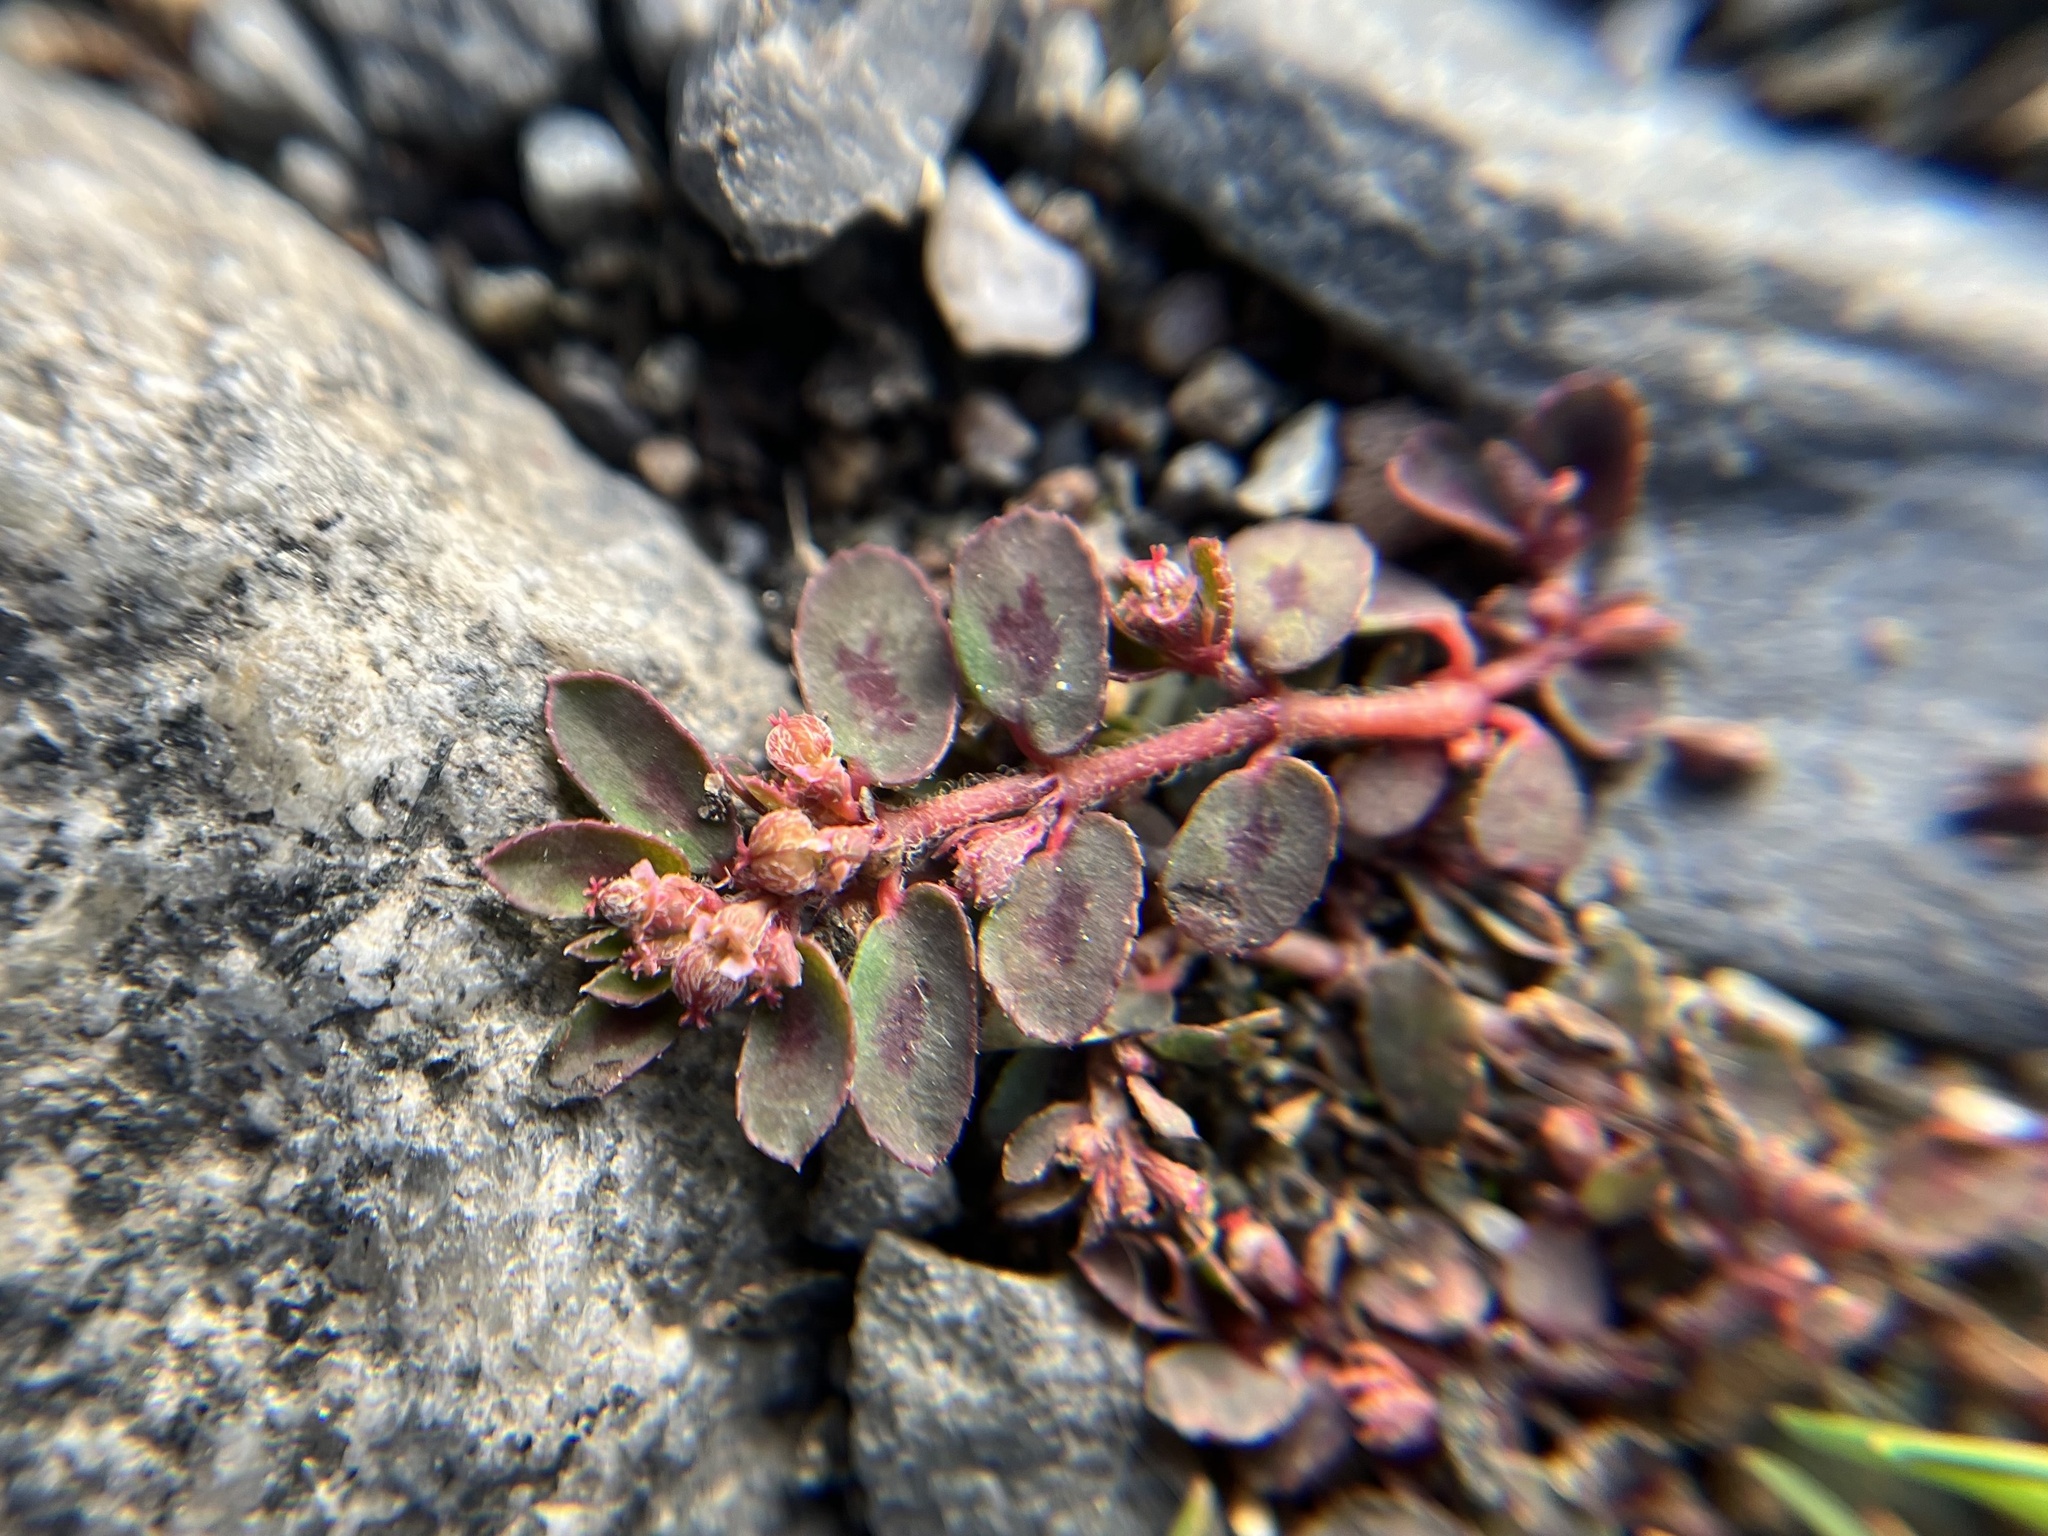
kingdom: Plantae
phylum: Tracheophyta
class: Magnoliopsida
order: Malpighiales
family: Euphorbiaceae
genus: Euphorbia
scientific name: Euphorbia maculata
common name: Spotted spurge
